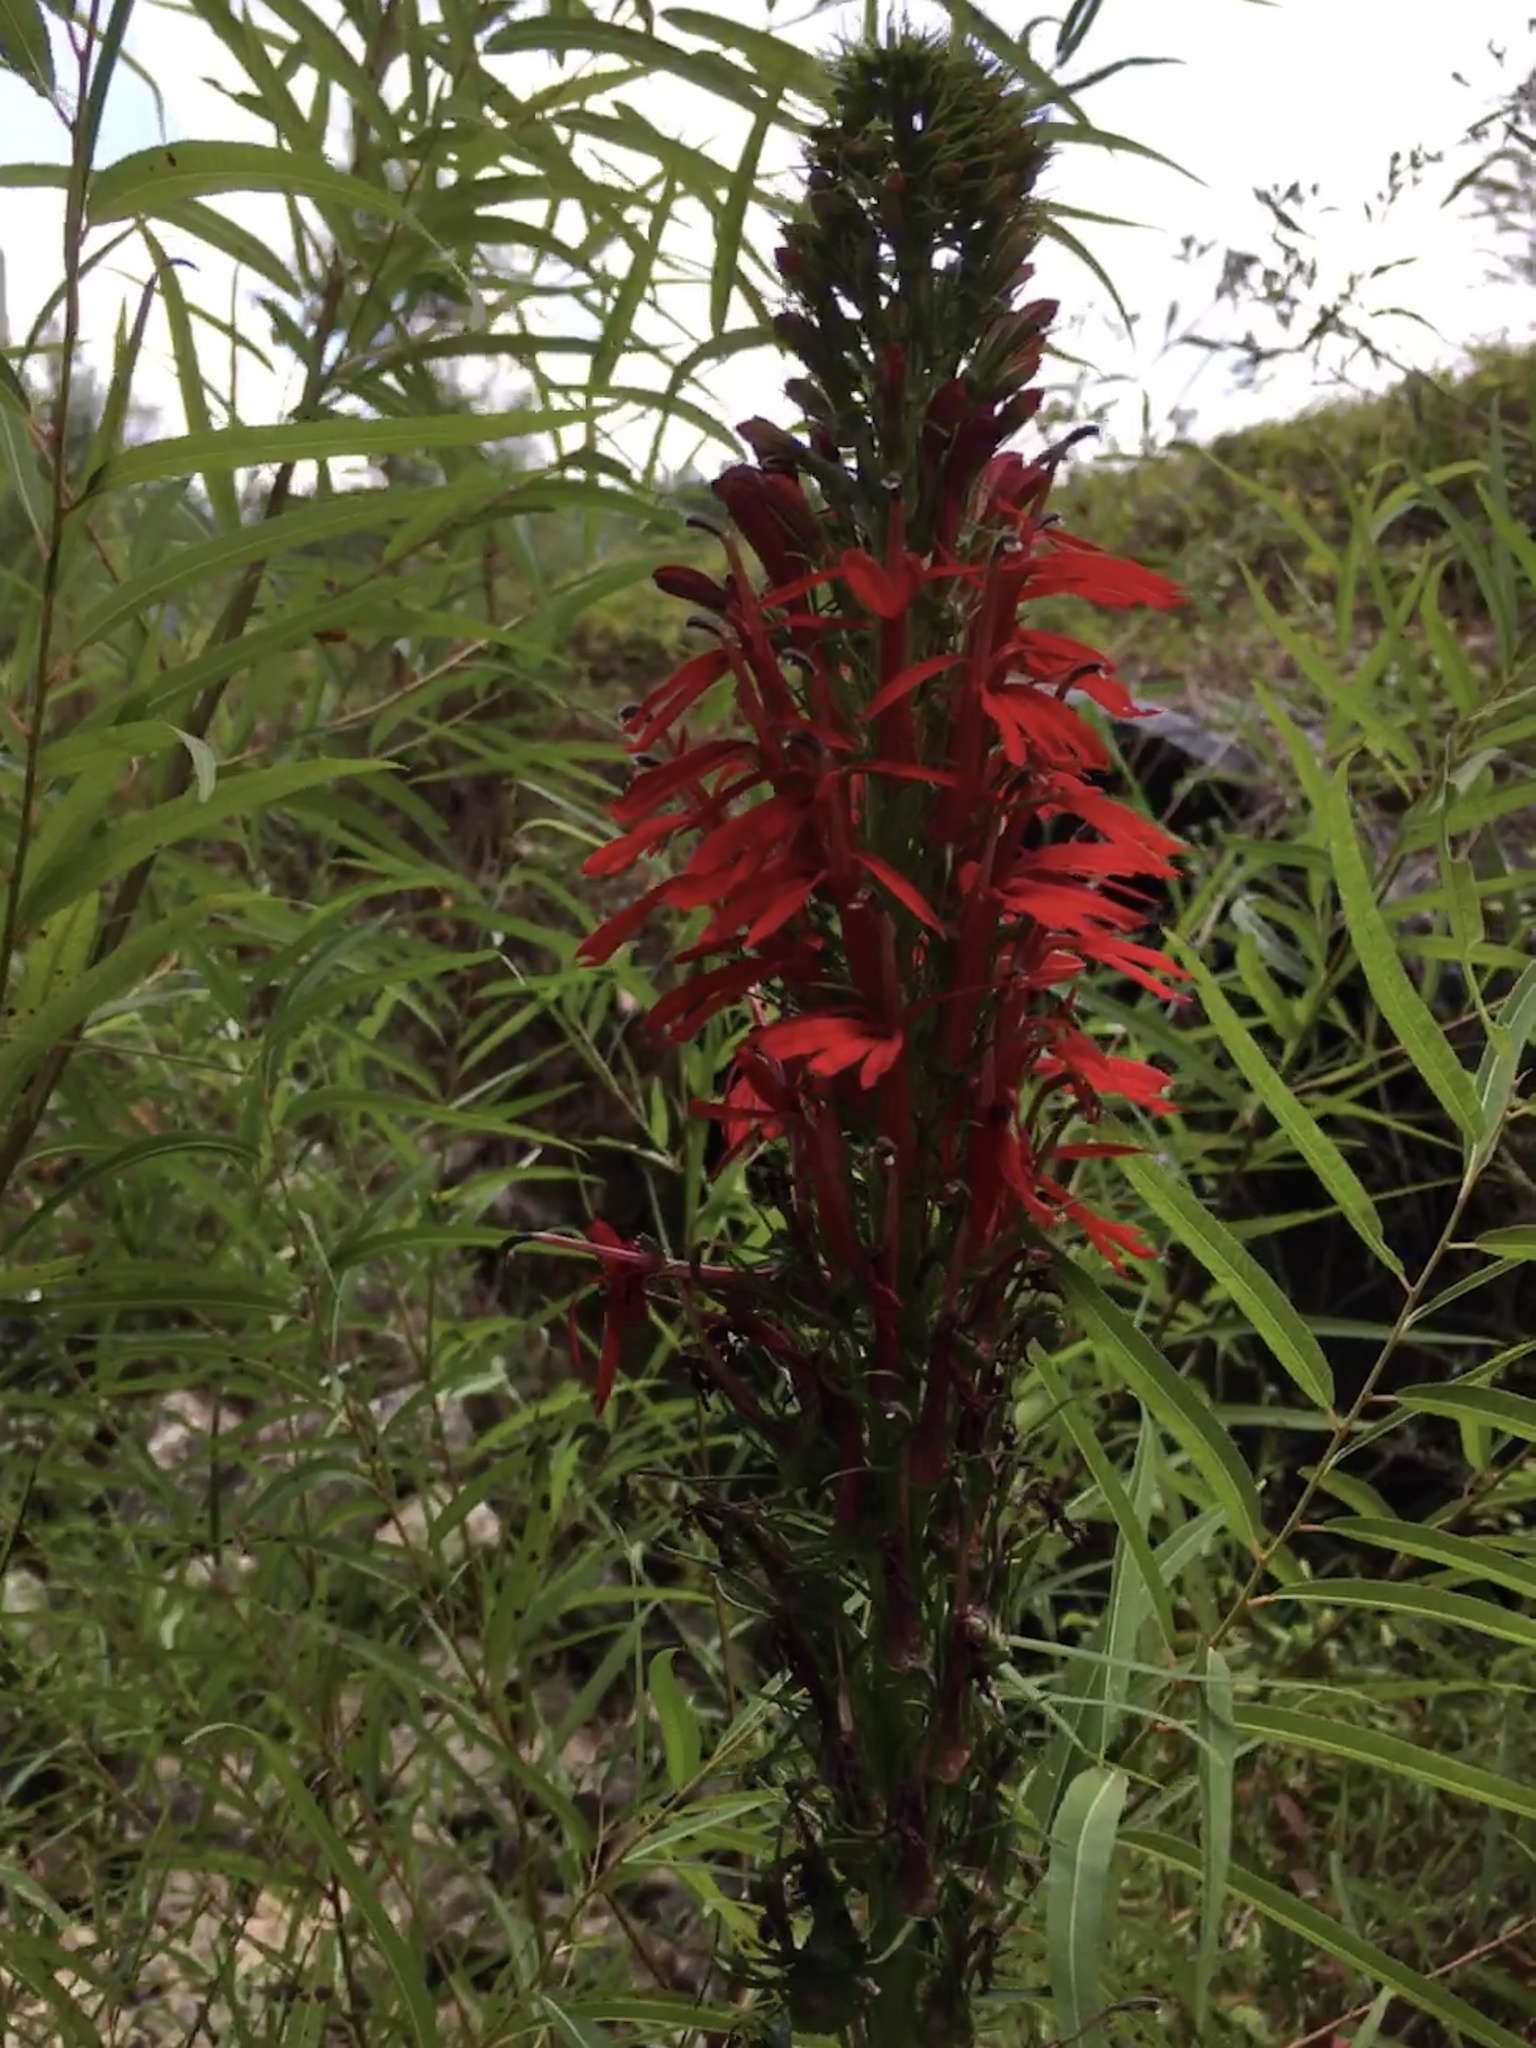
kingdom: Plantae
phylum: Tracheophyta
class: Magnoliopsida
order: Asterales
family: Campanulaceae
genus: Lobelia
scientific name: Lobelia cardinalis
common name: Cardinal flower
